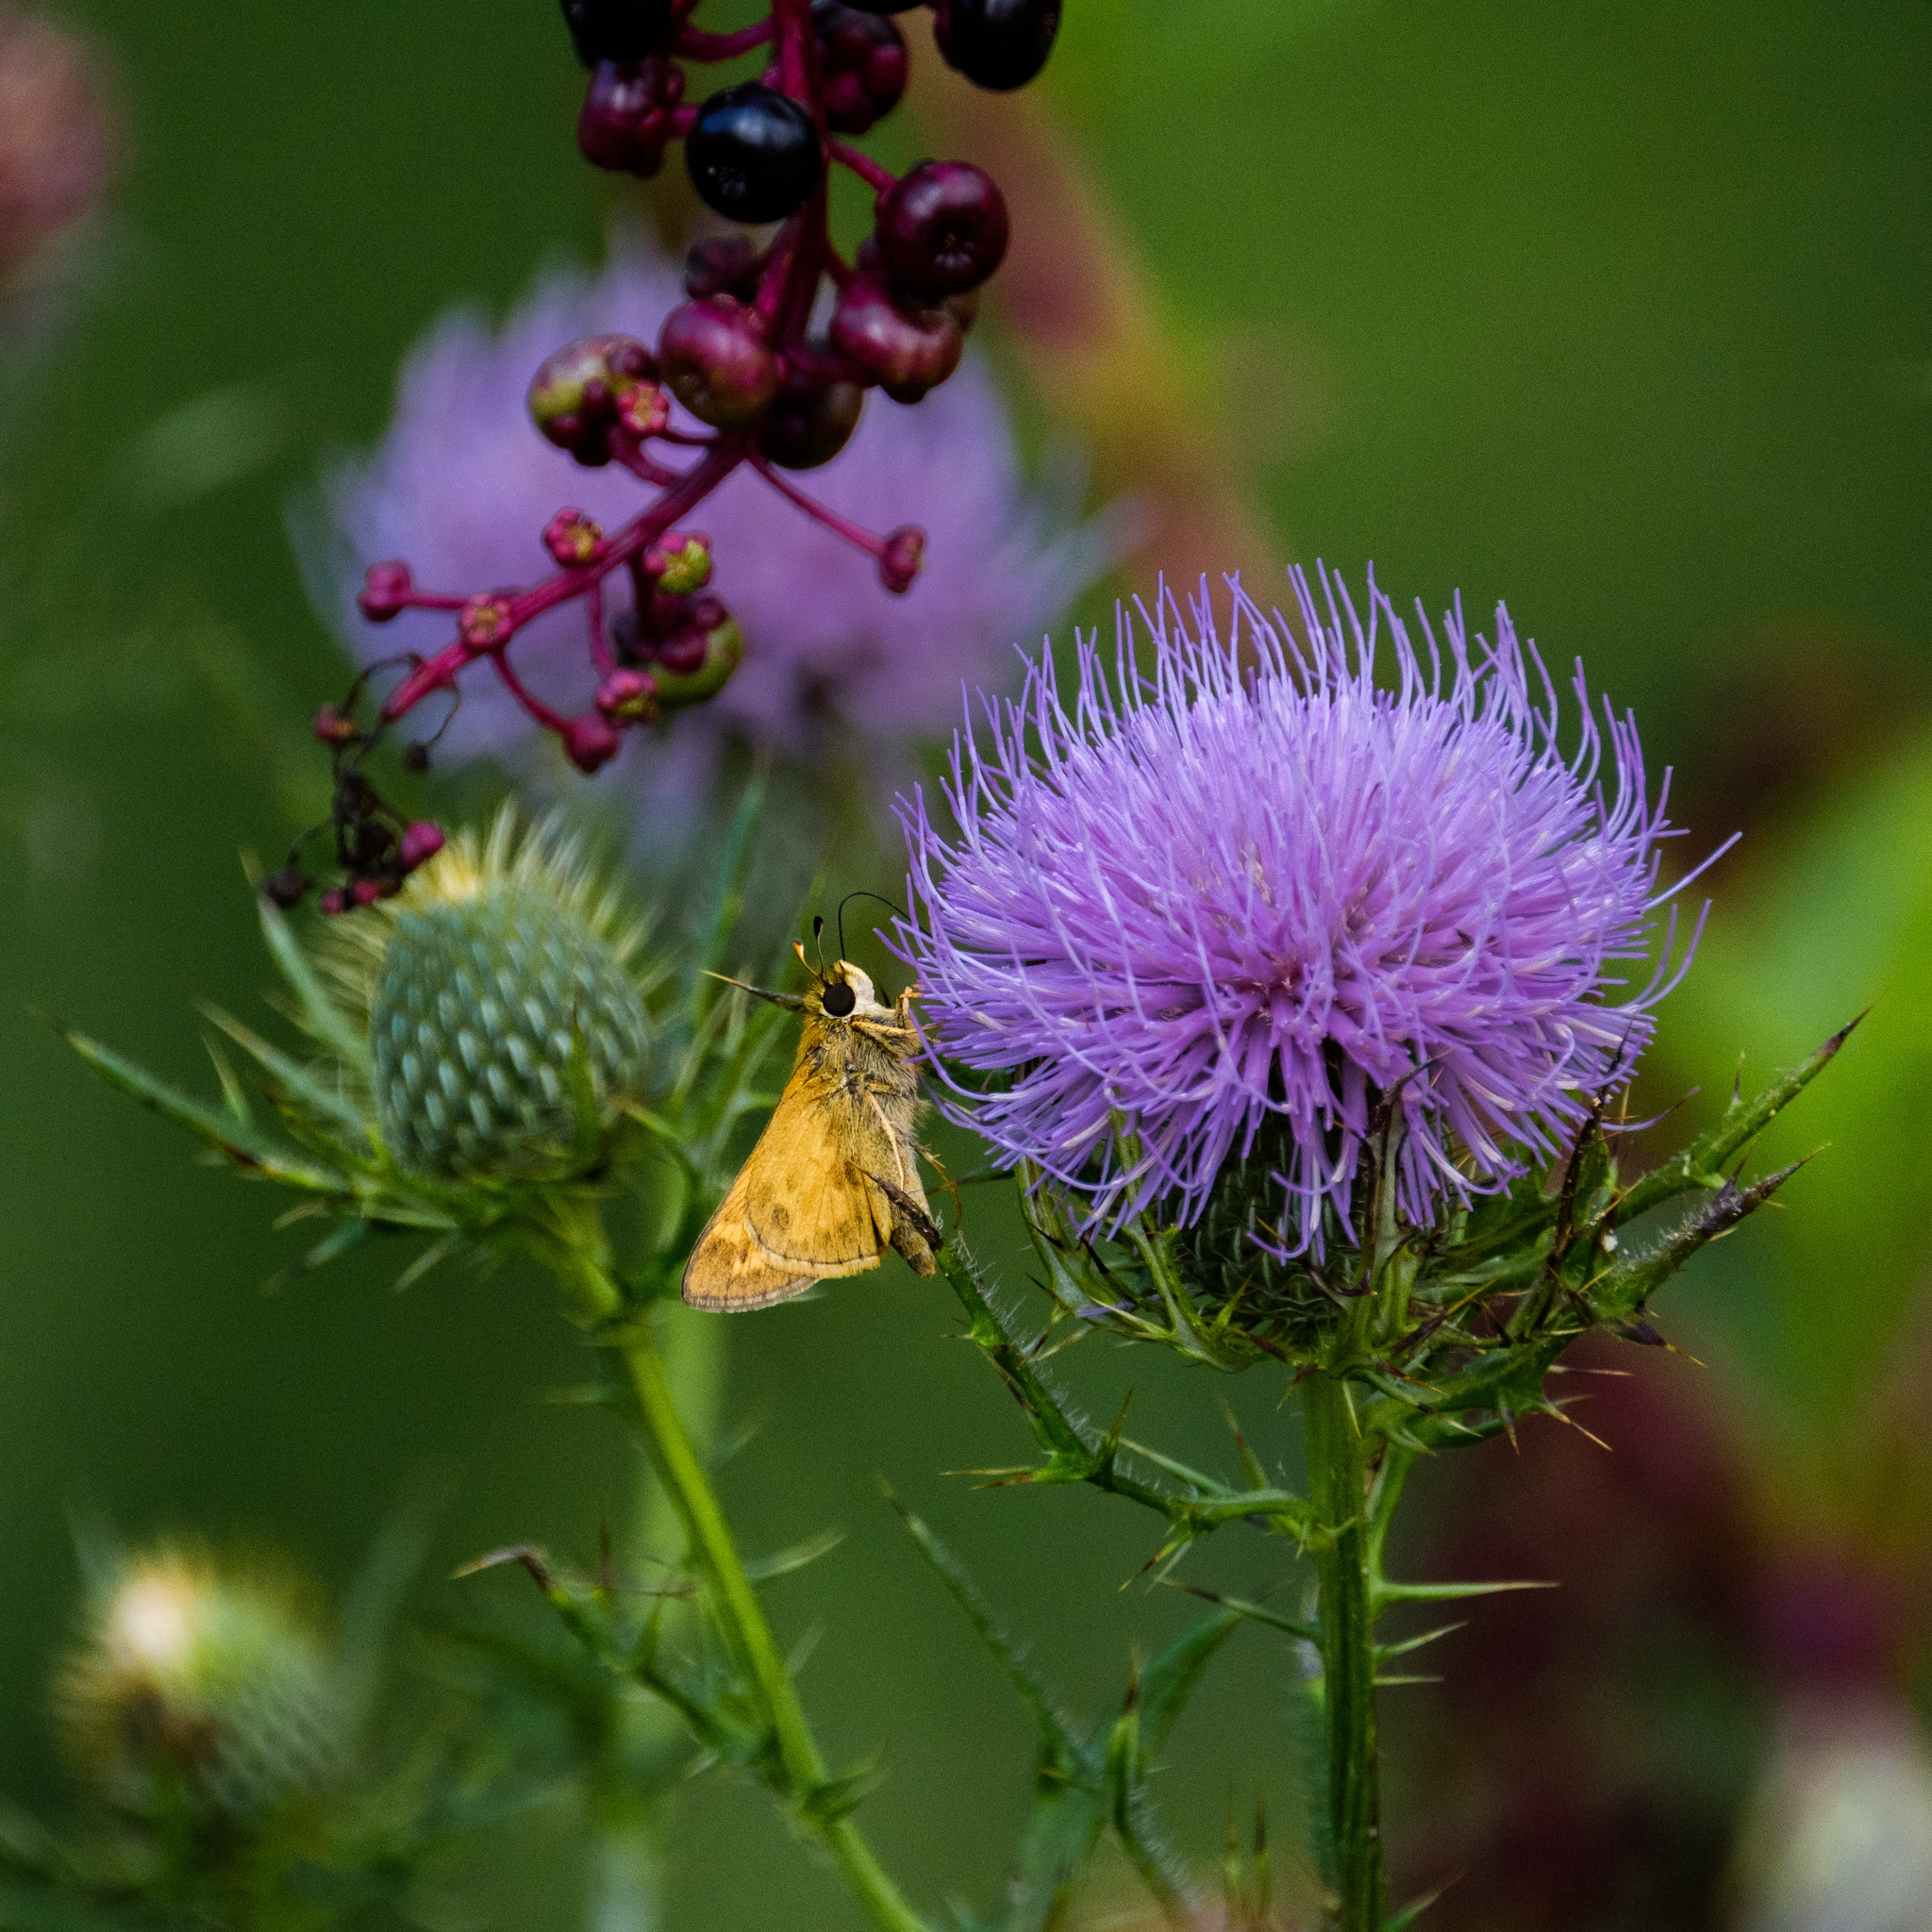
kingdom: Animalia
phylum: Arthropoda
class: Insecta
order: Lepidoptera
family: Hesperiidae
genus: Atalopedes
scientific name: Atalopedes
